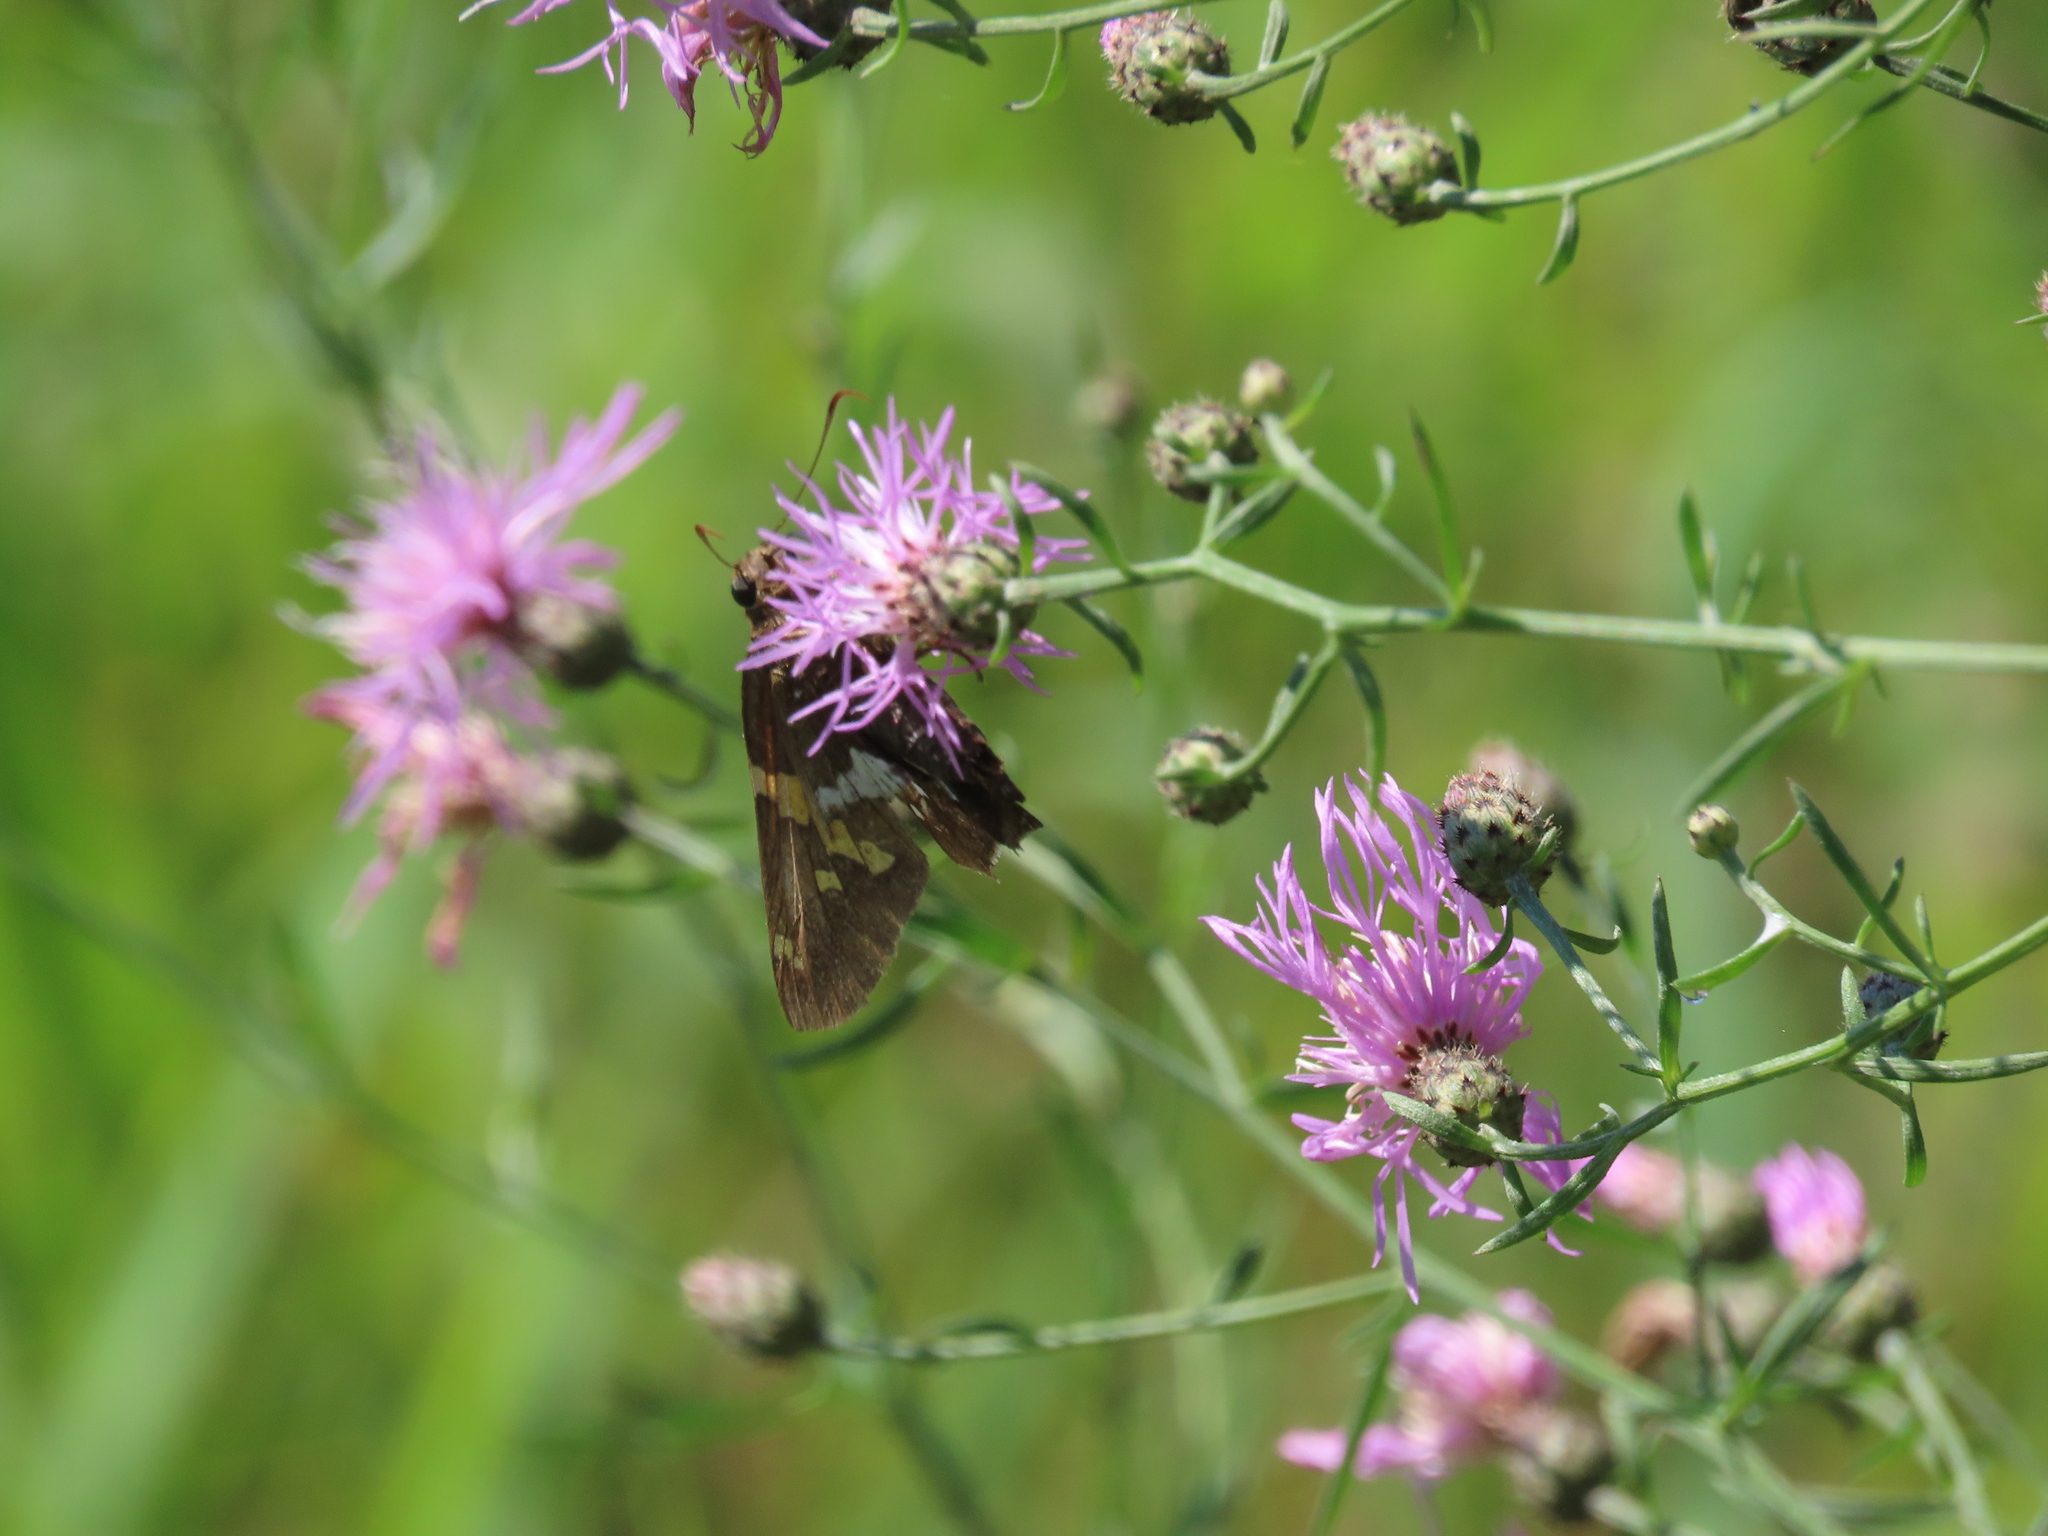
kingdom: Animalia
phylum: Arthropoda
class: Insecta
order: Lepidoptera
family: Hesperiidae
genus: Epargyreus
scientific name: Epargyreus clarus
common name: Silver-spotted skipper
